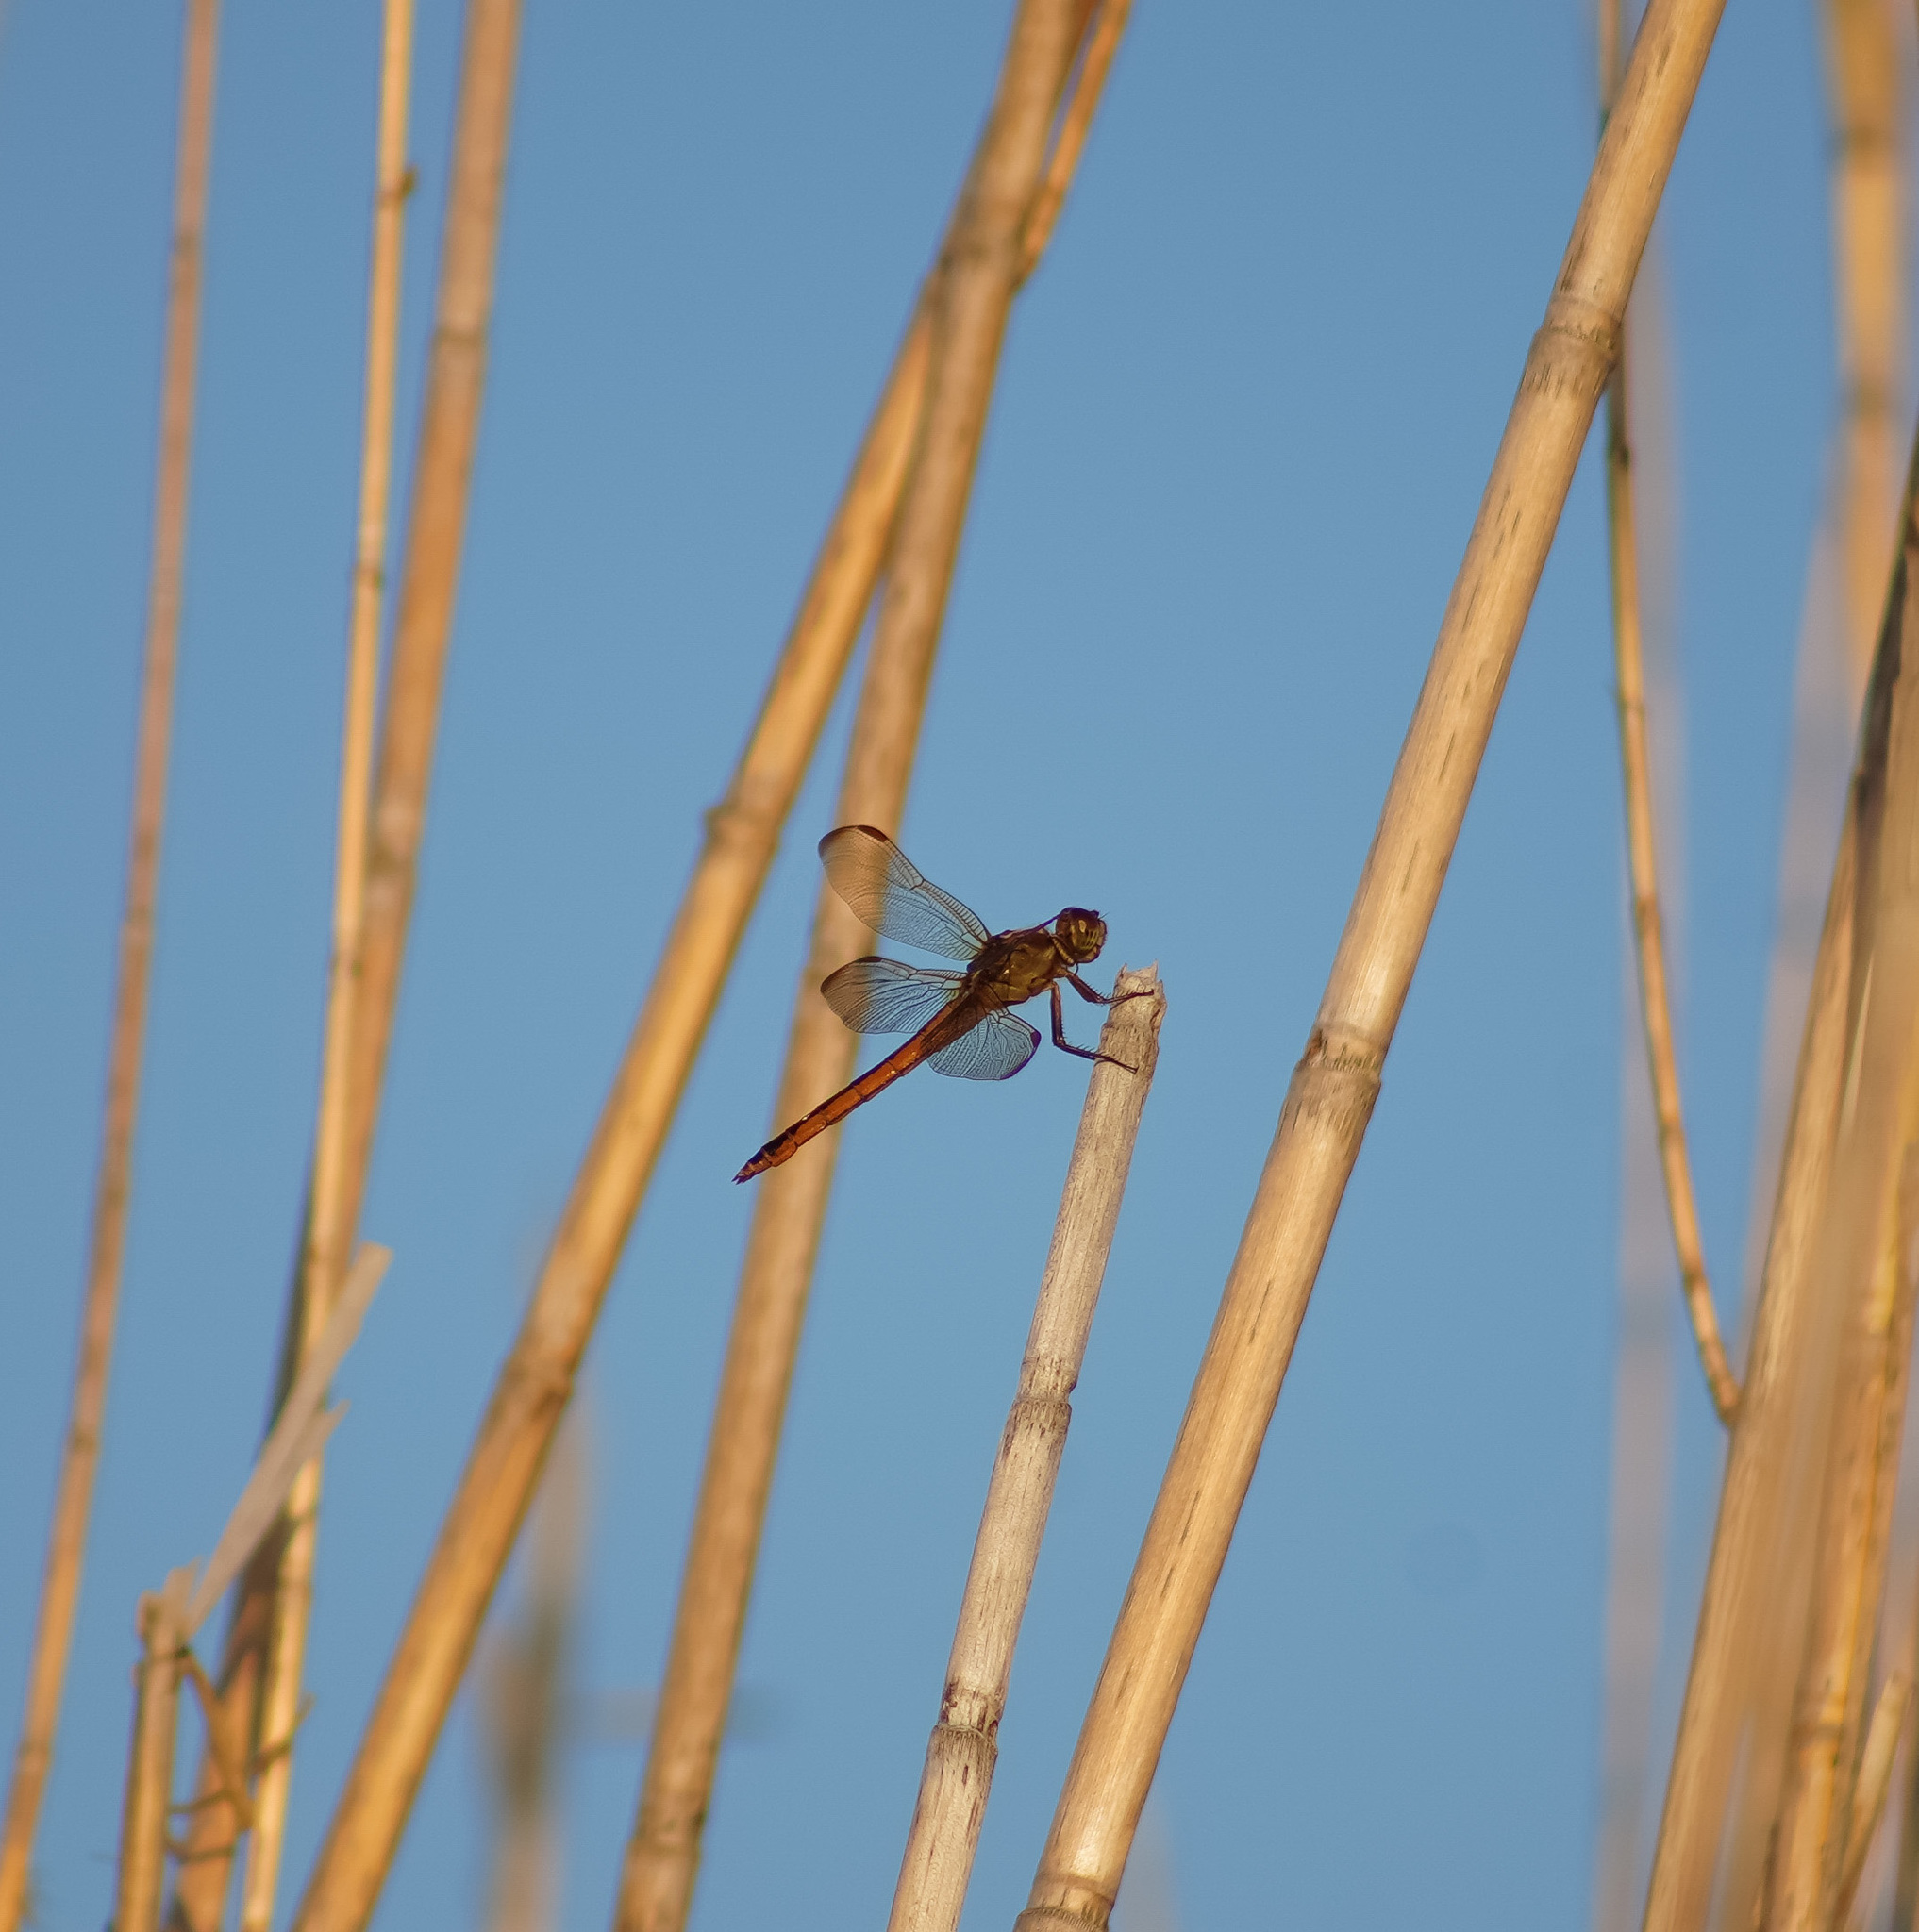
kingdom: Animalia
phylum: Arthropoda
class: Insecta
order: Odonata
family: Libellulidae
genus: Libellula
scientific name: Libellula needhami
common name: Needham's skimmer
